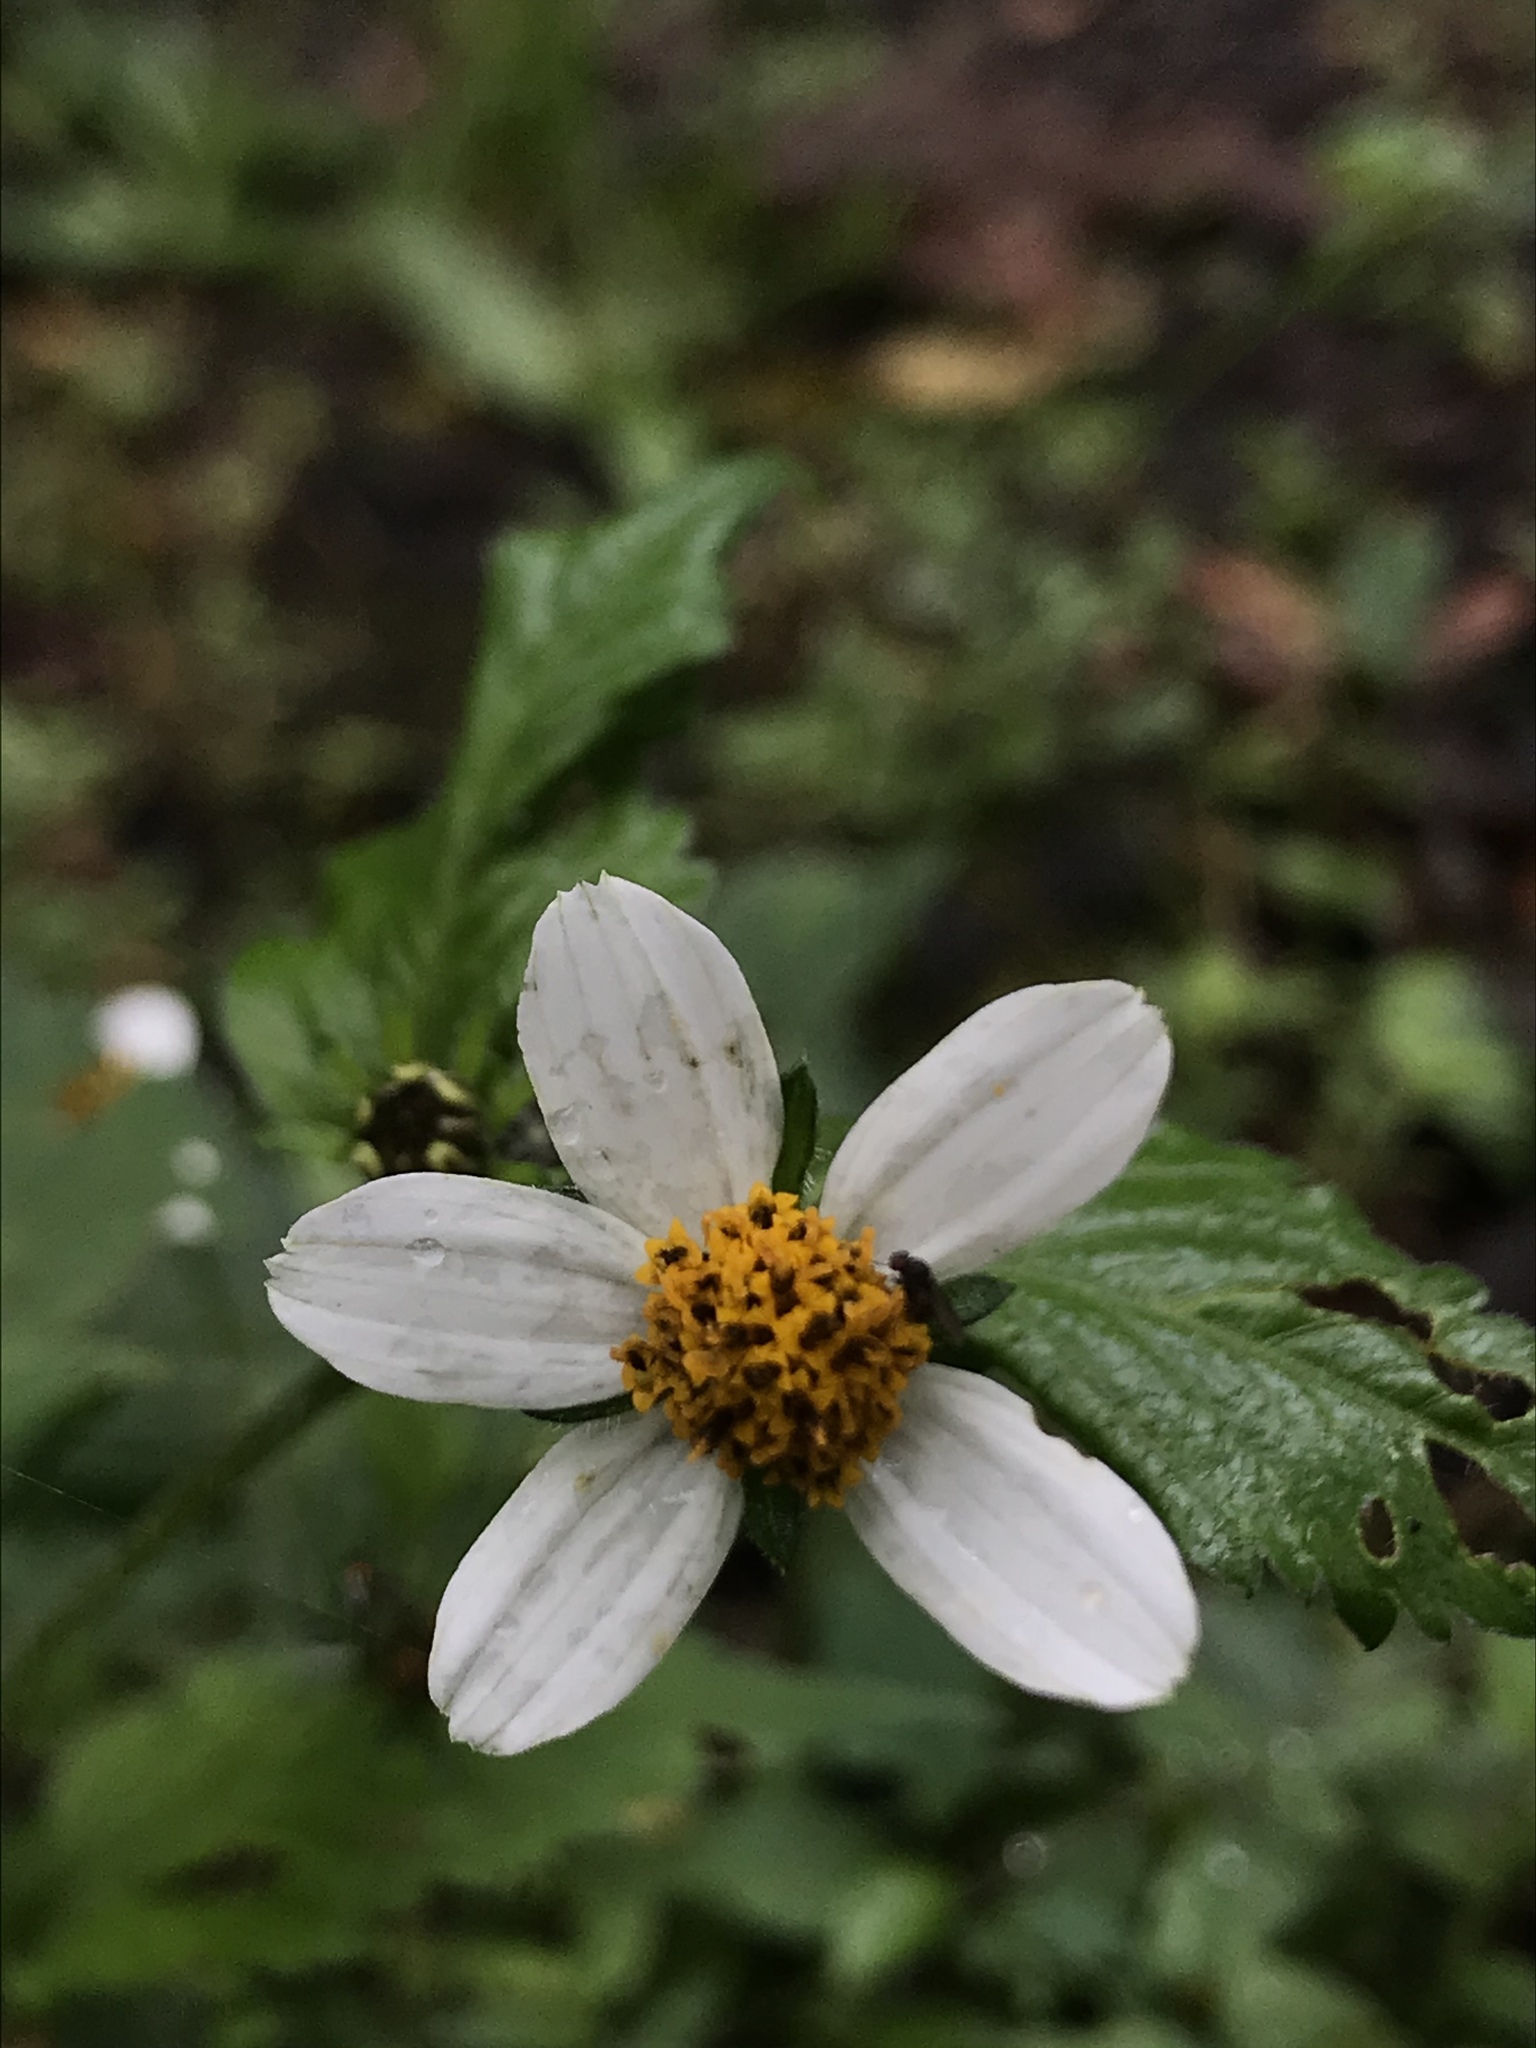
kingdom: Plantae
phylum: Tracheophyta
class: Magnoliopsida
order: Asterales
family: Asteraceae
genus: Alloispermum
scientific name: Alloispermum caracasanum
